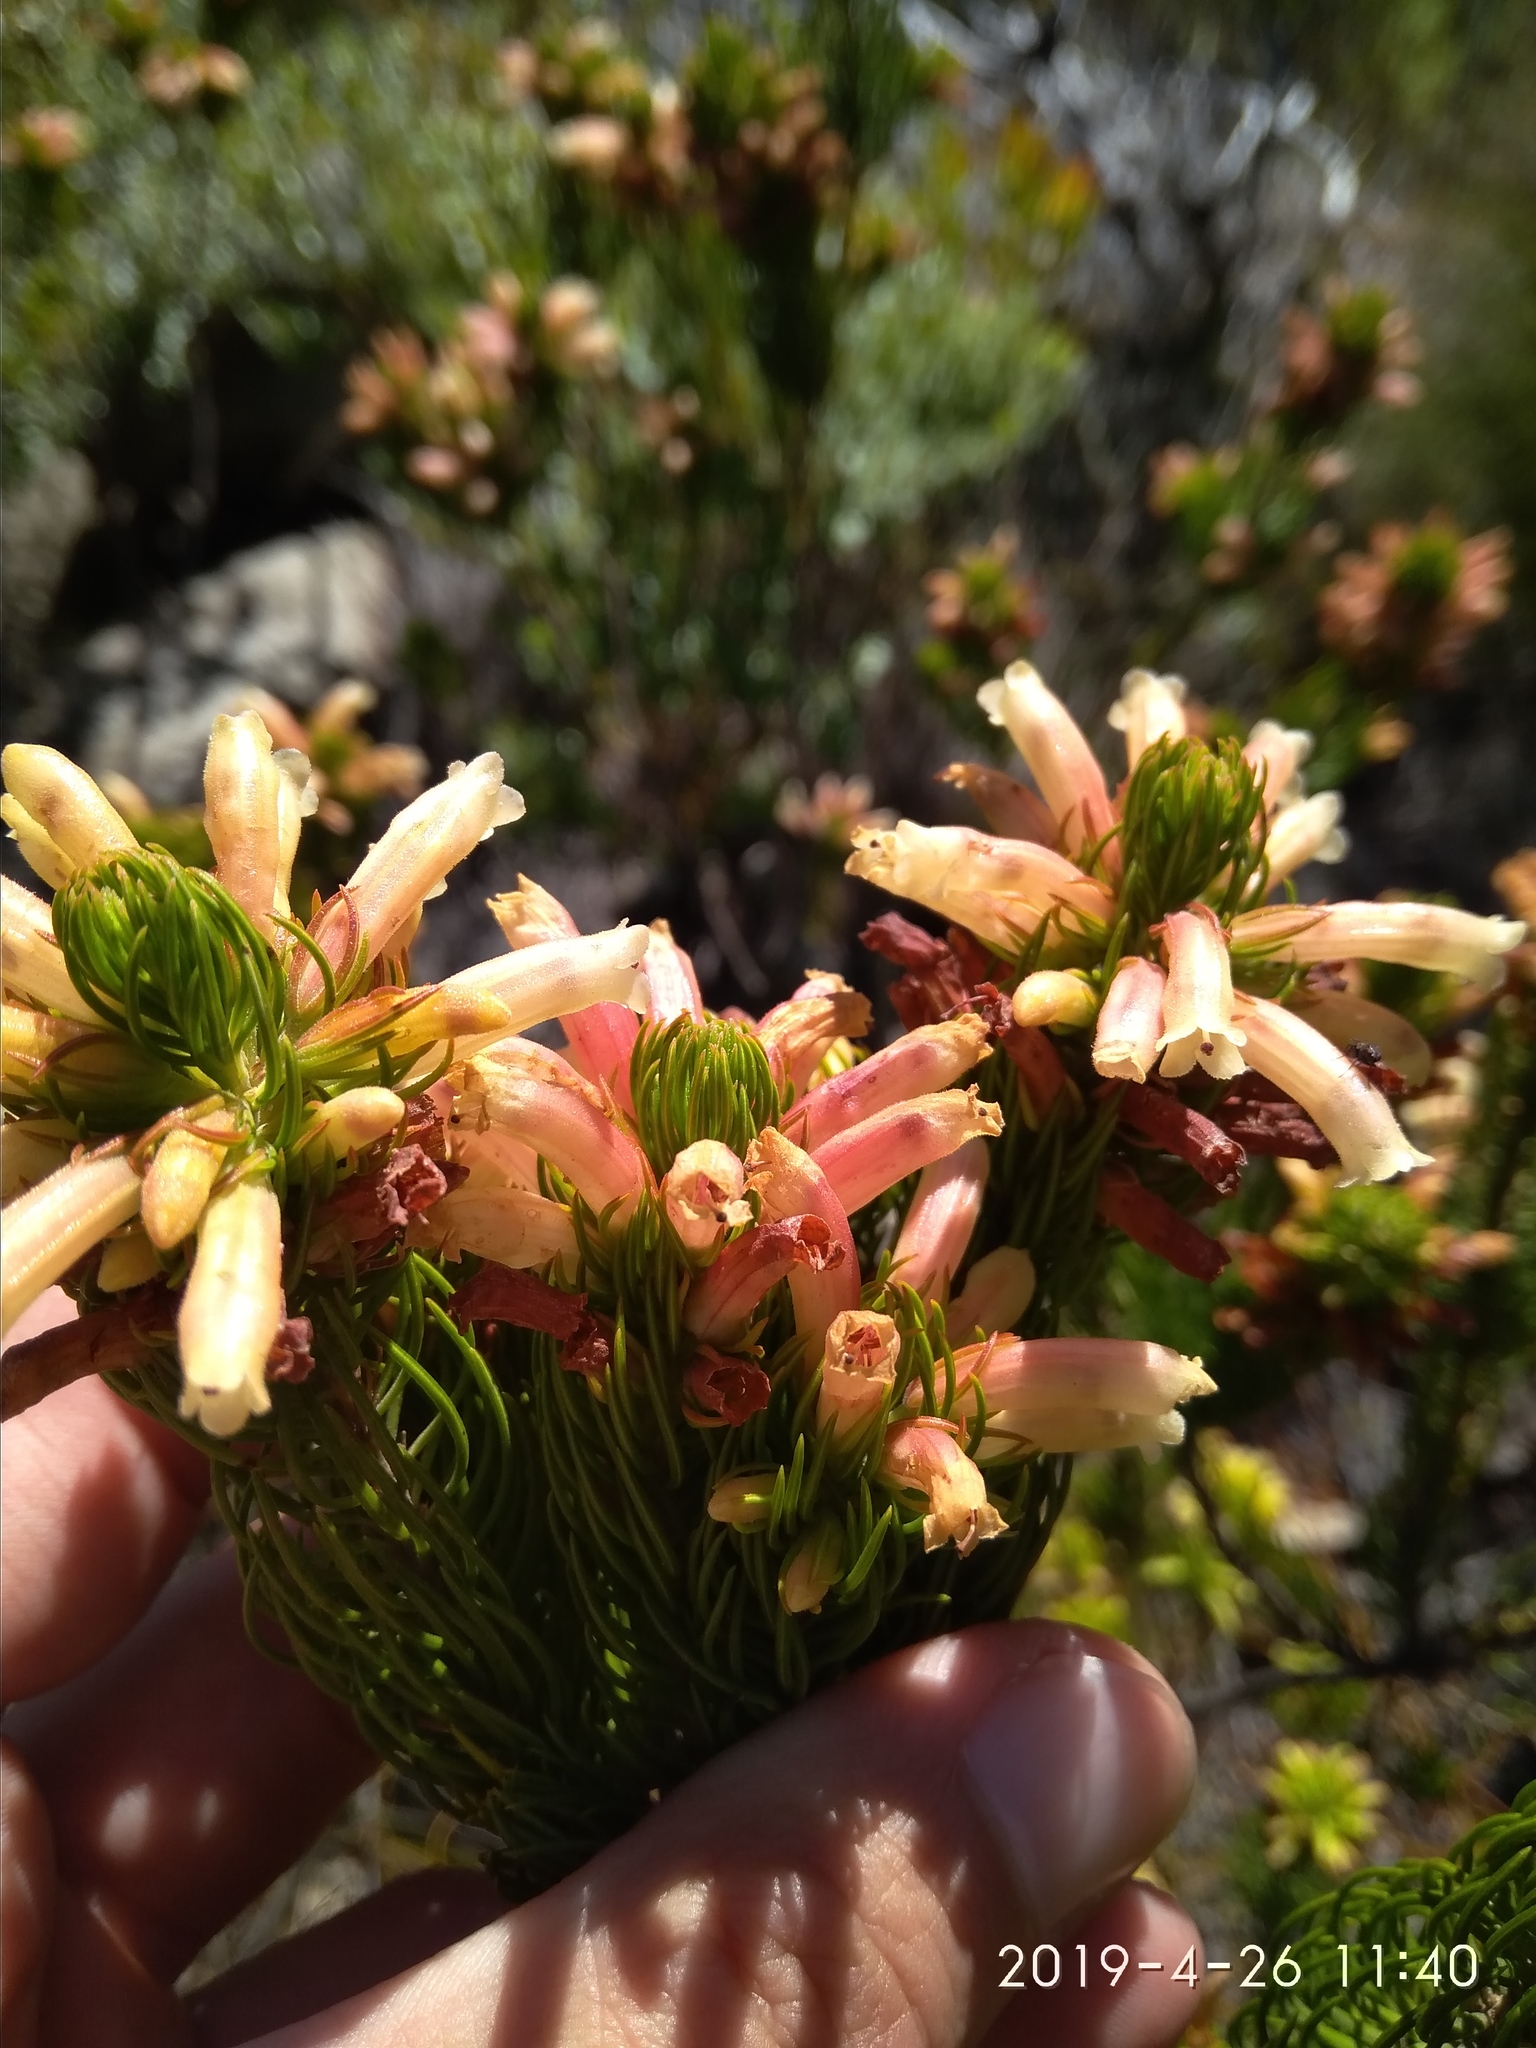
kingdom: Plantae
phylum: Tracheophyta
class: Magnoliopsida
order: Ericales
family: Ericaceae
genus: Erica
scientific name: Erica viscaria
